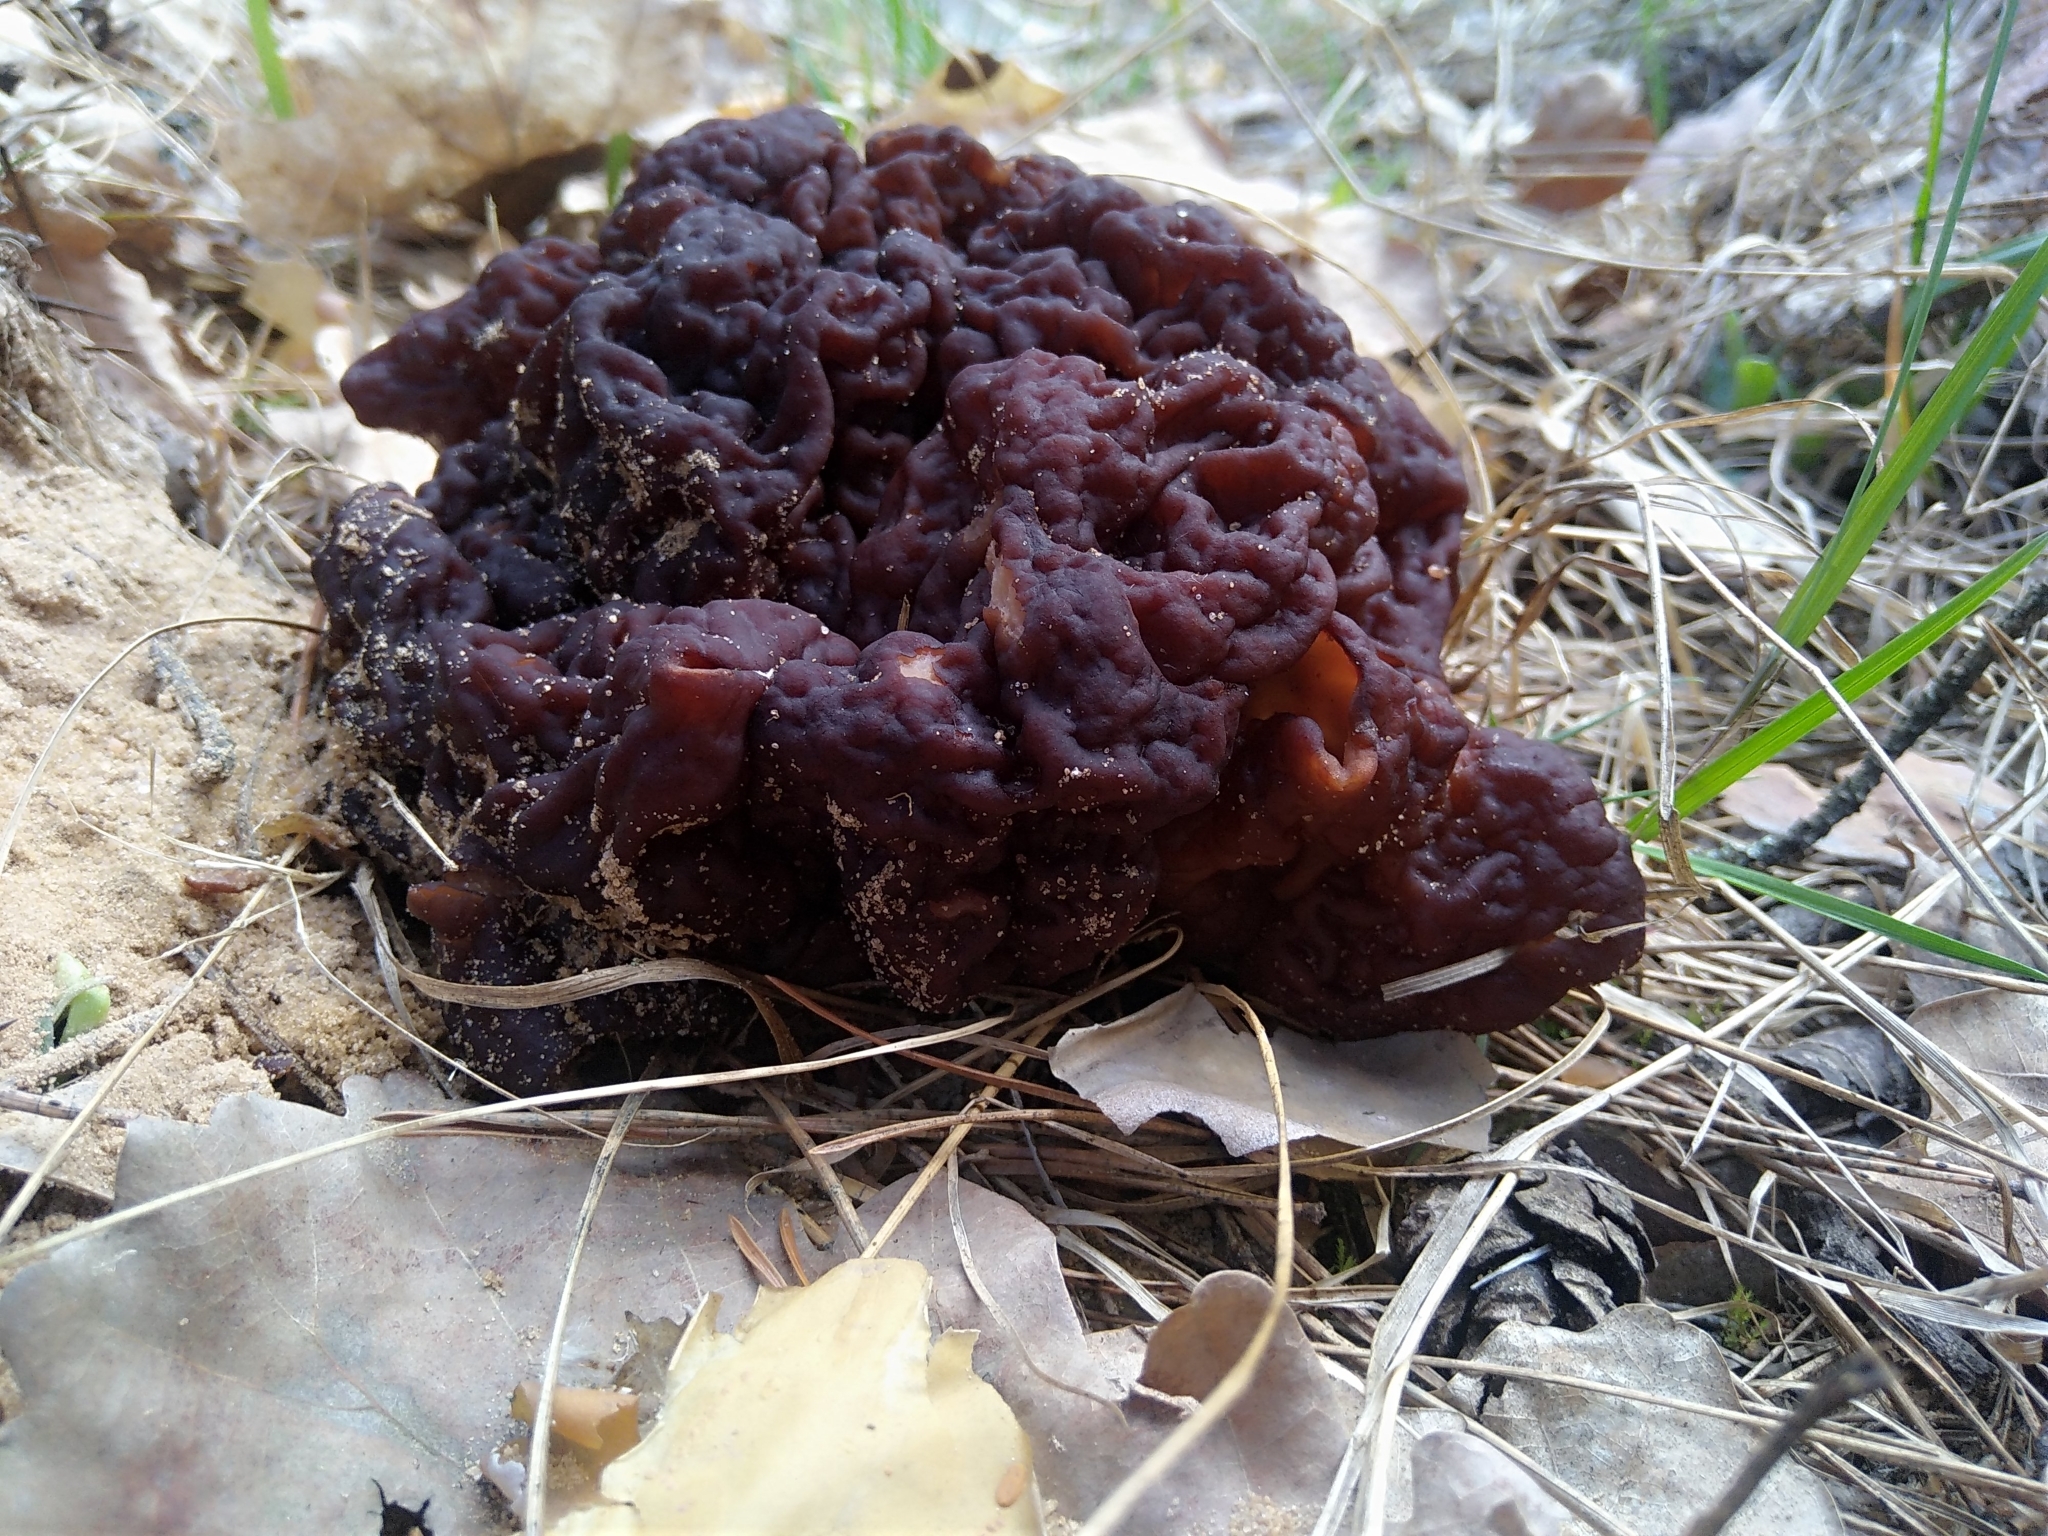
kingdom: Fungi
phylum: Ascomycota
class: Pezizomycetes
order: Pezizales
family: Discinaceae
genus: Gyromitra
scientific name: Gyromitra esculenta
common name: False morel
